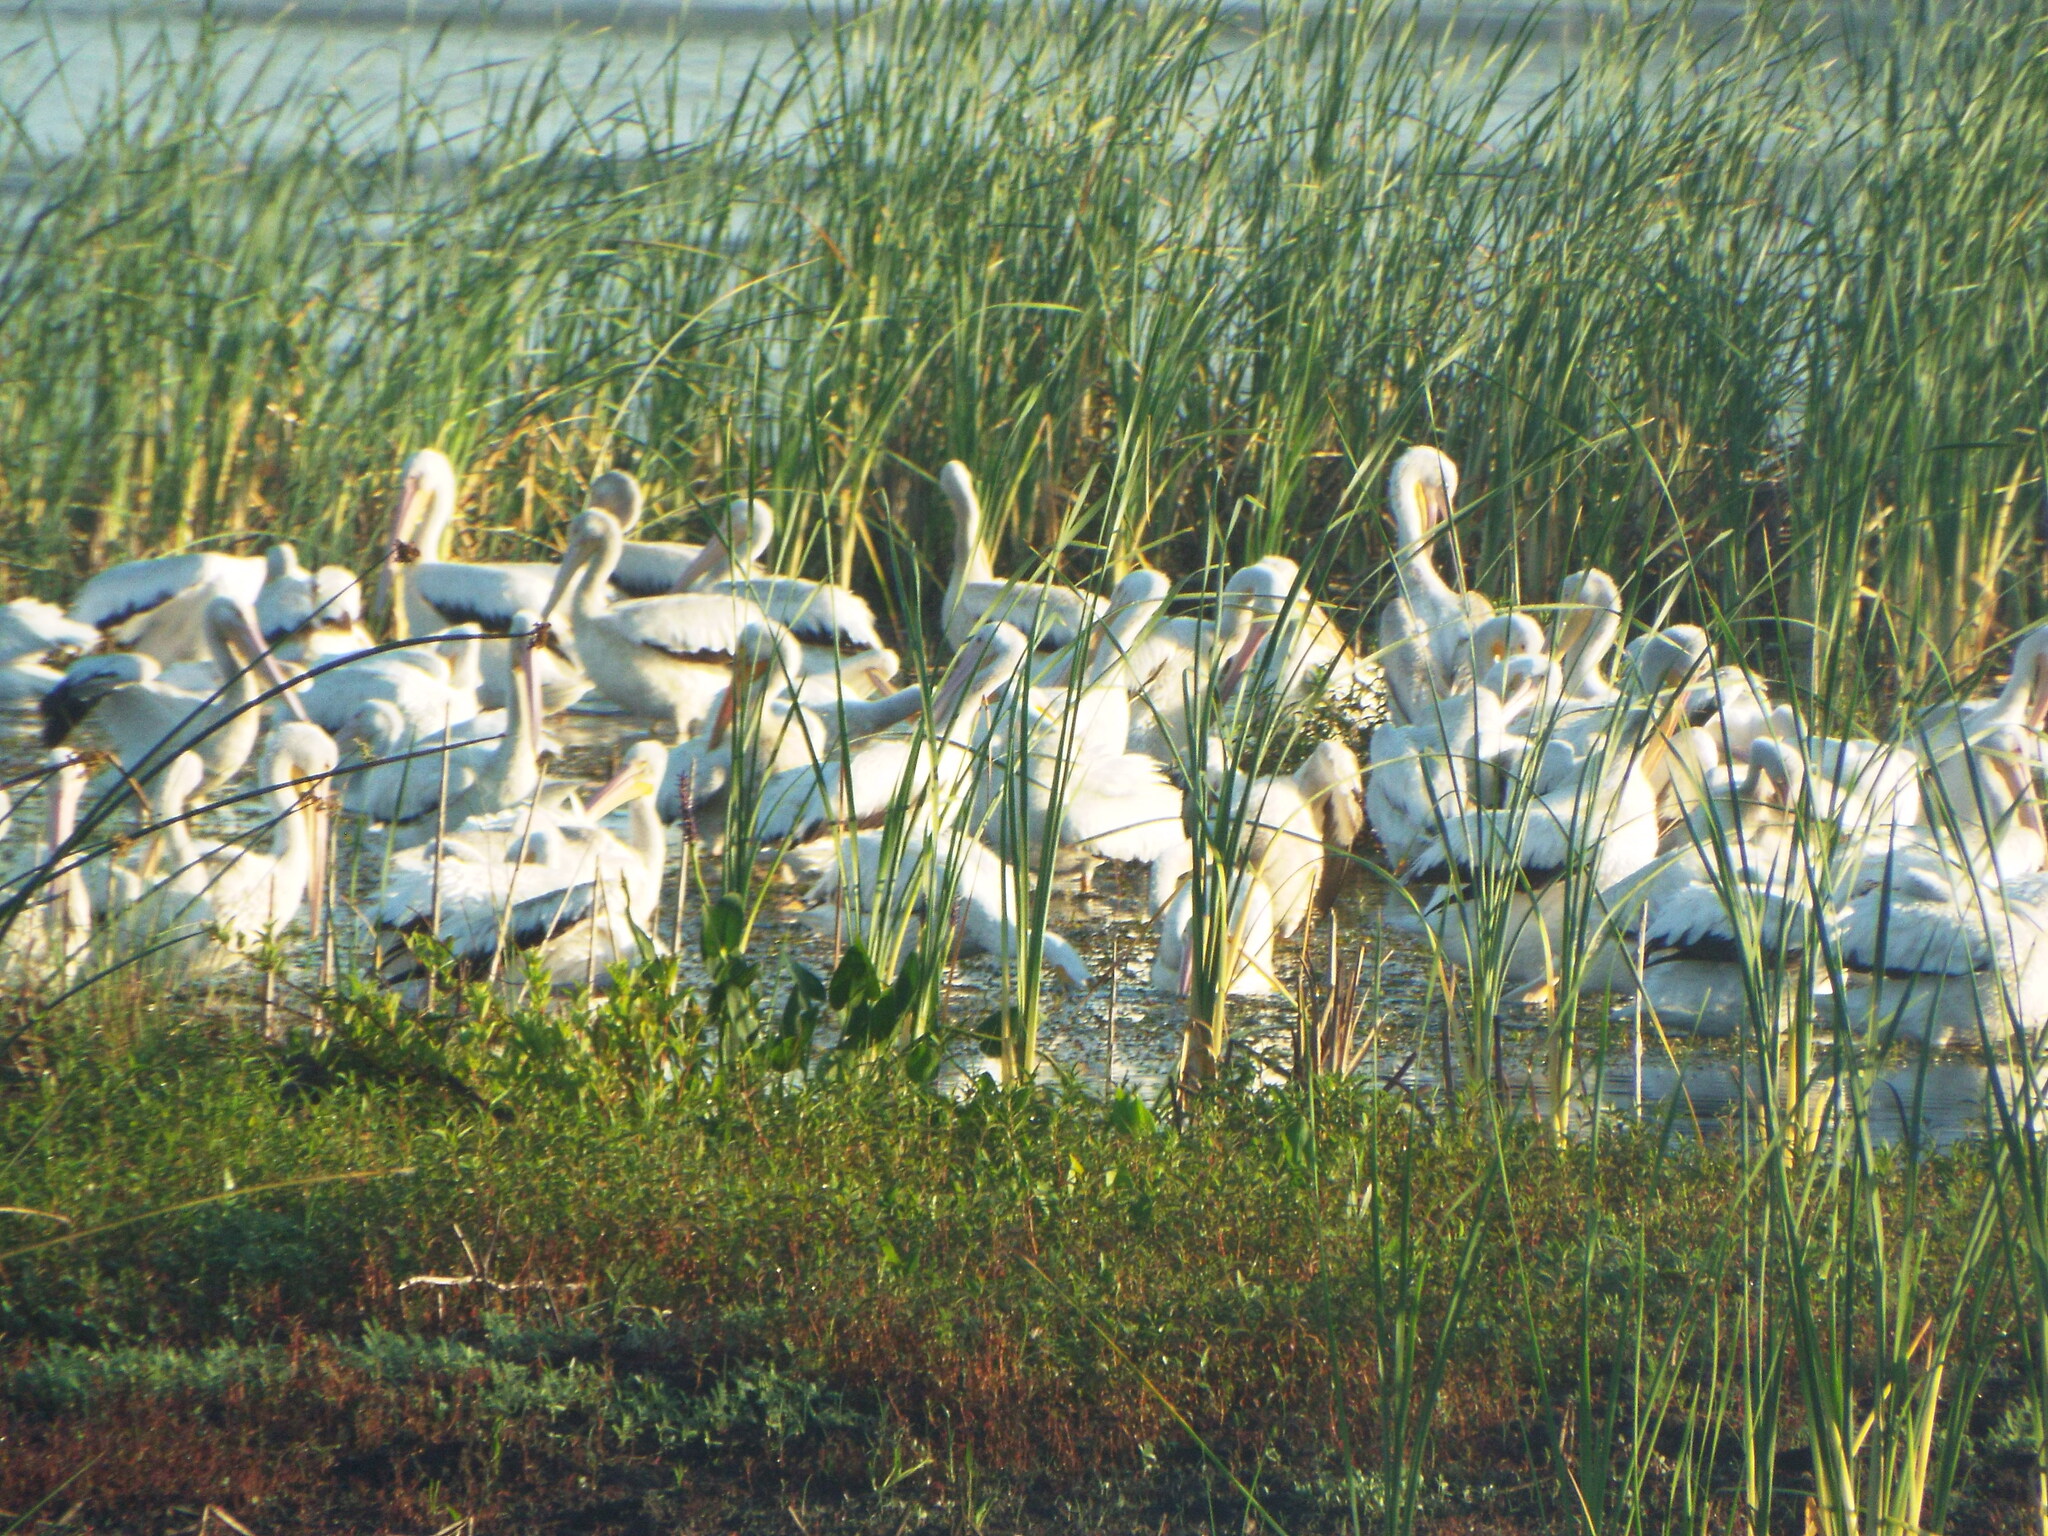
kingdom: Animalia
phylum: Chordata
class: Aves
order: Pelecaniformes
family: Pelecanidae
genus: Pelecanus
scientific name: Pelecanus erythrorhynchos
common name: American white pelican
